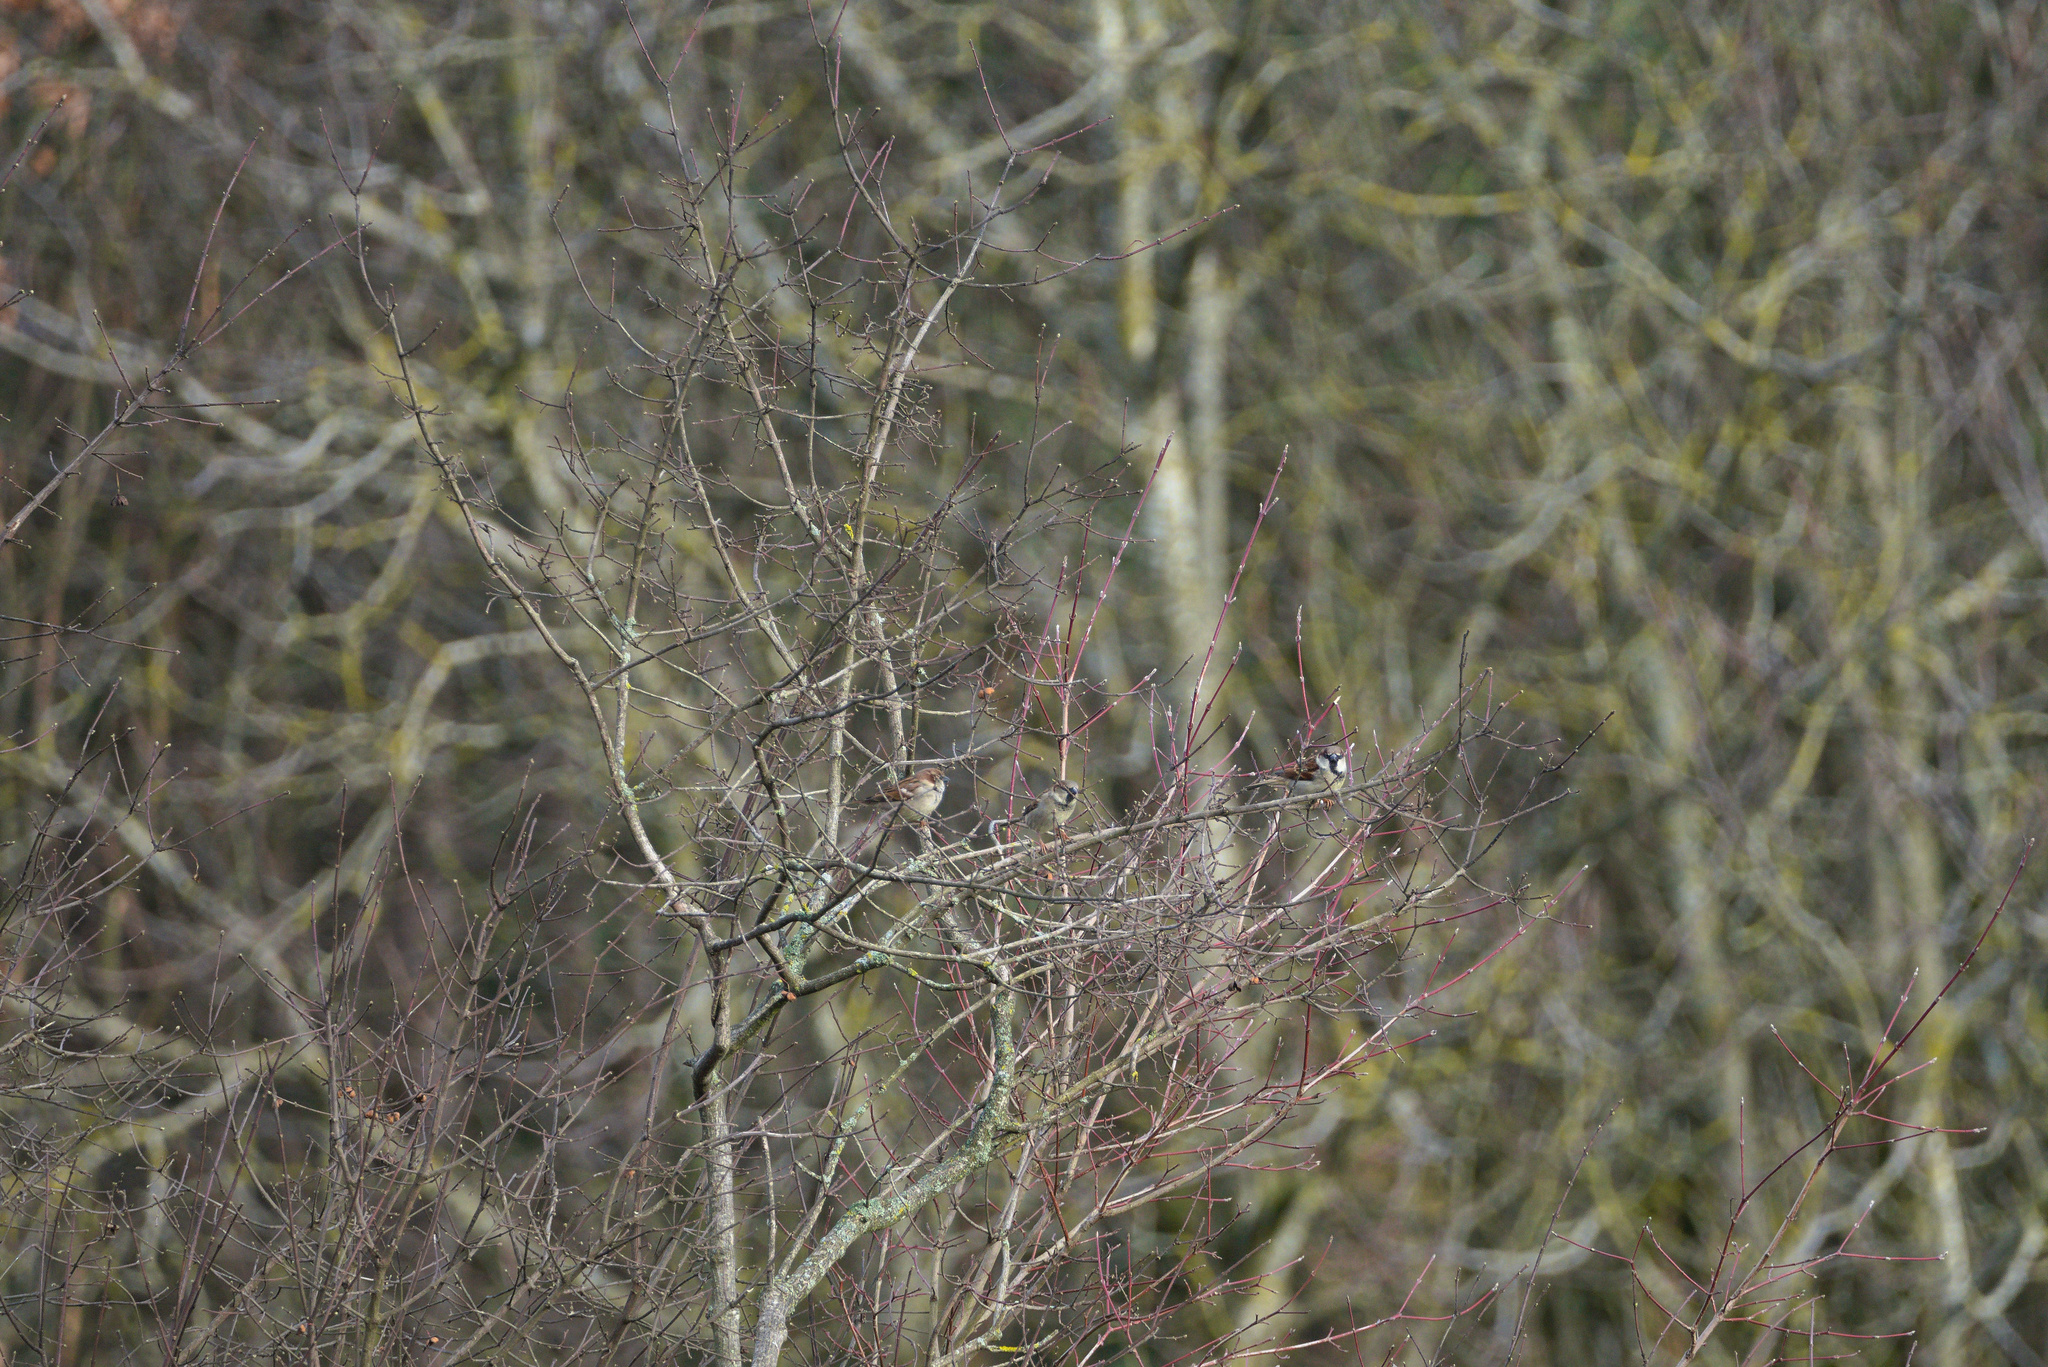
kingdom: Animalia
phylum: Chordata
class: Aves
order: Passeriformes
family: Passeridae
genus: Passer
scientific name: Passer domesticus
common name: House sparrow
